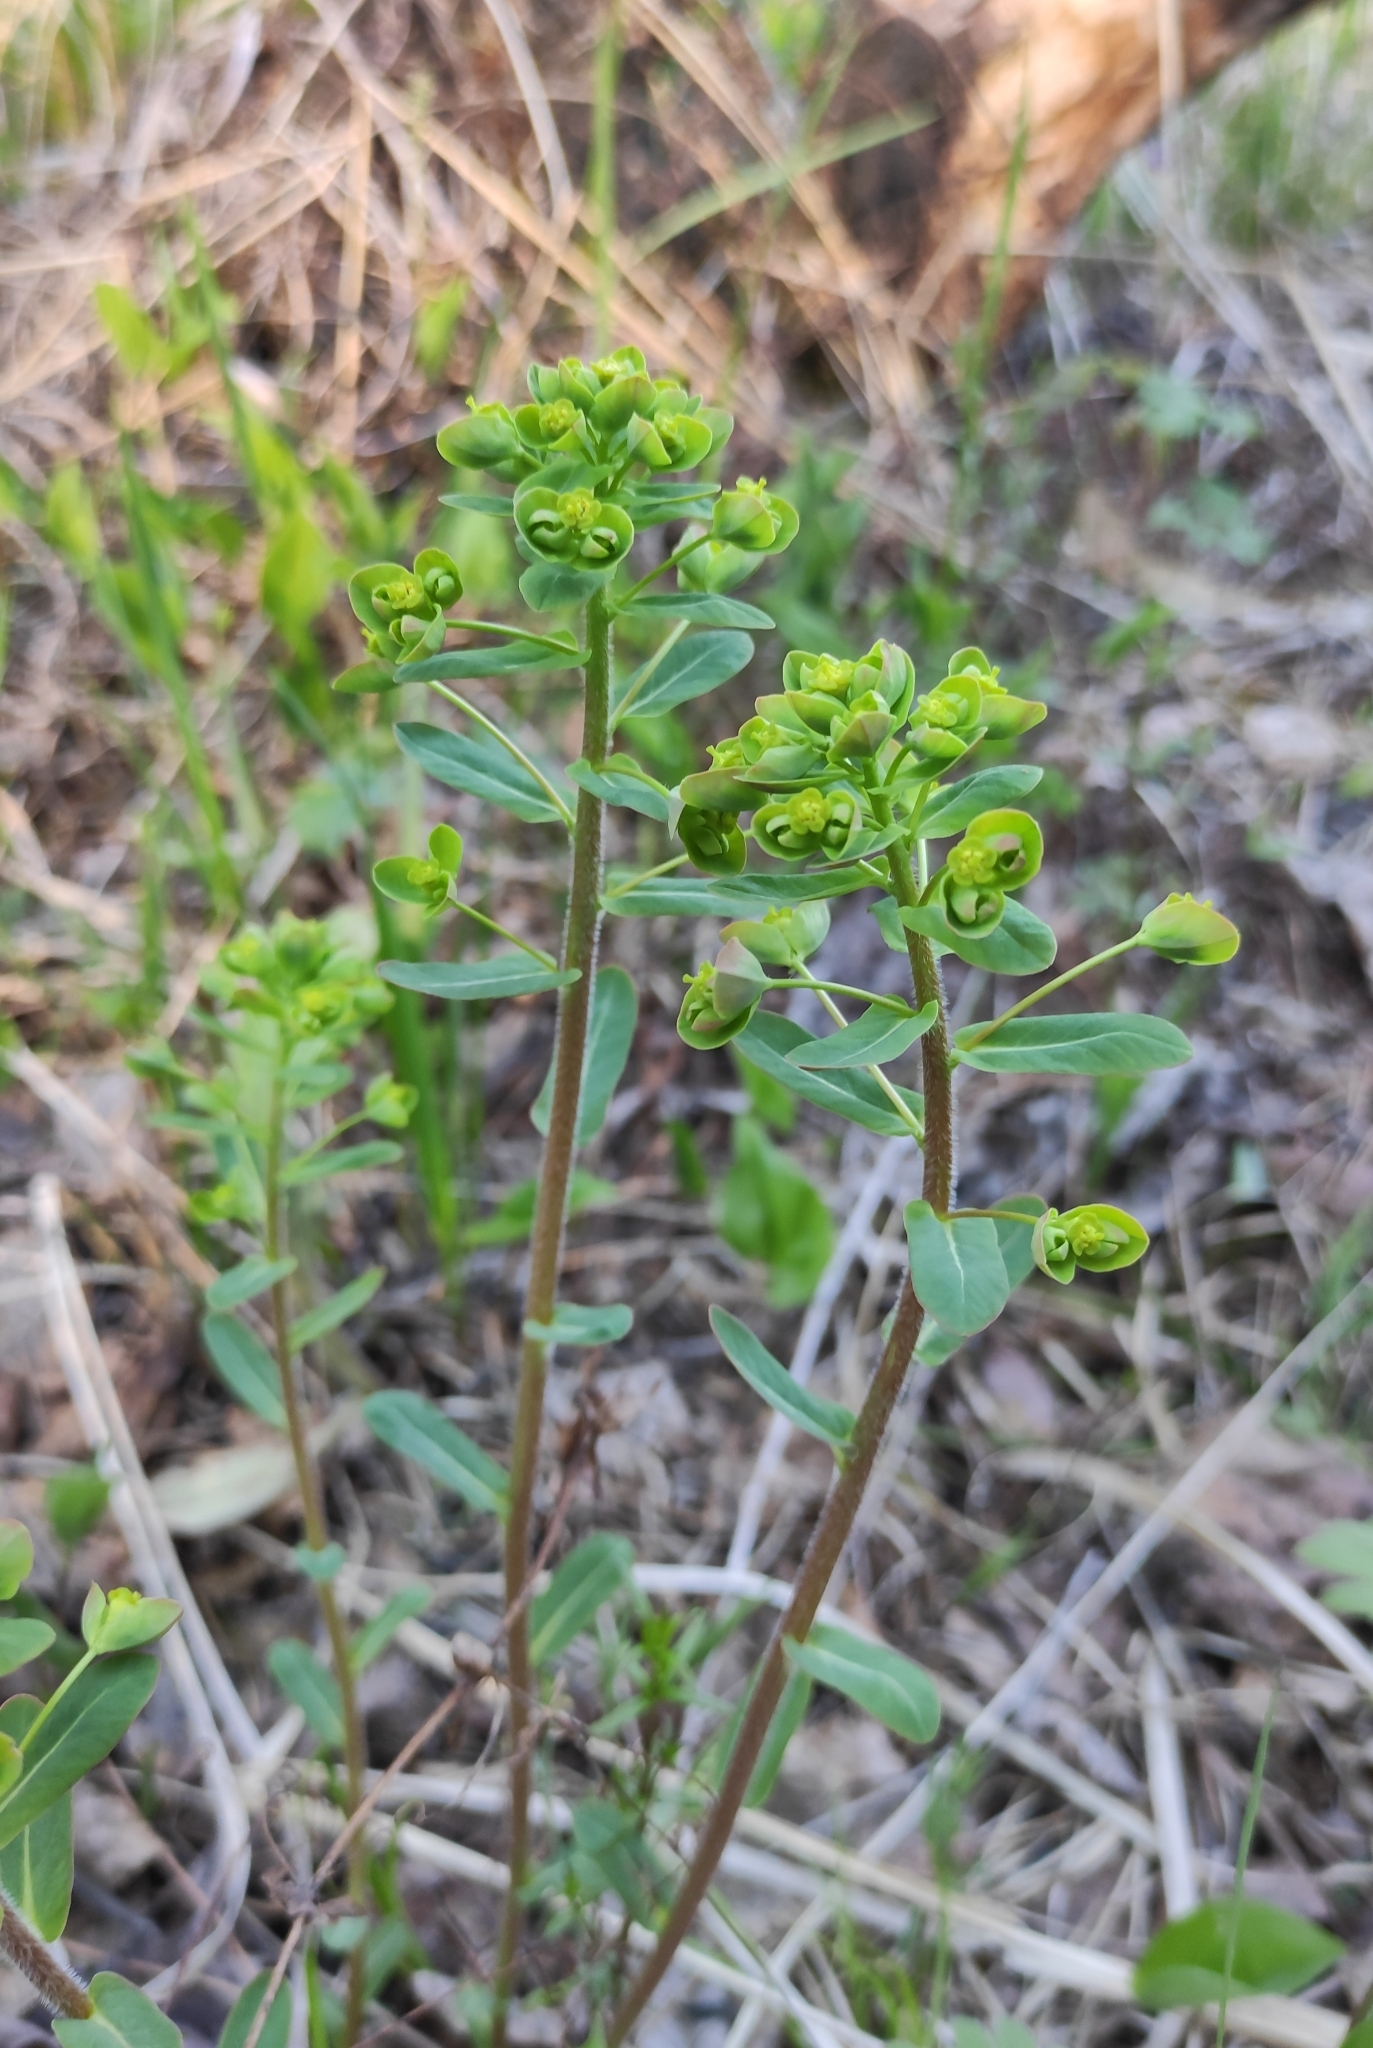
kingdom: Plantae
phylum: Tracheophyta
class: Magnoliopsida
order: Malpighiales
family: Euphorbiaceae
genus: Euphorbia
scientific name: Euphorbia jenisseiensis
